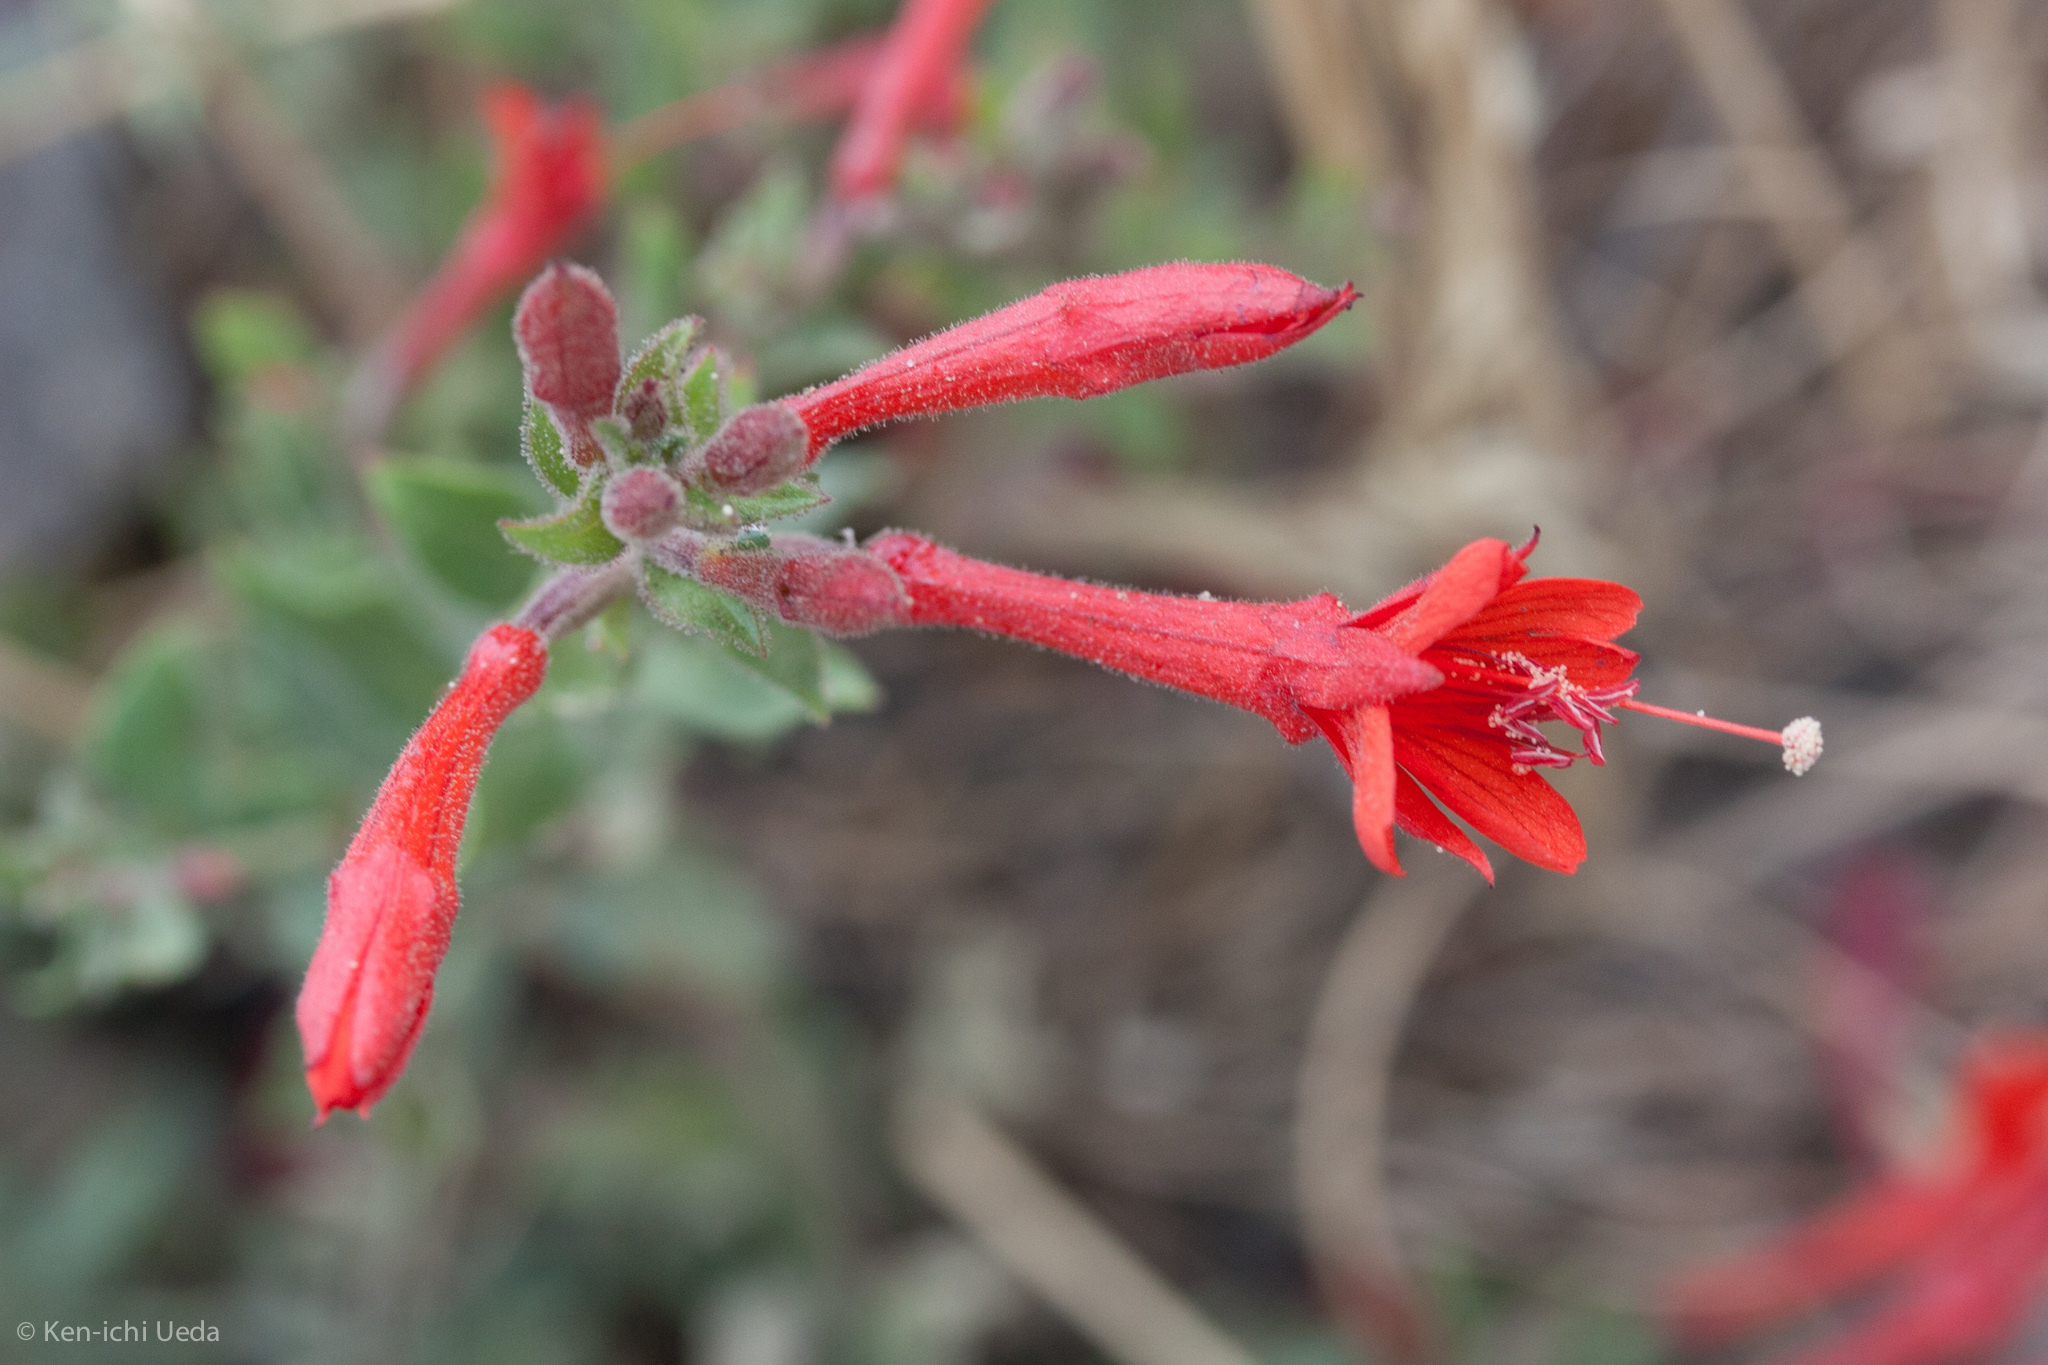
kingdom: Plantae
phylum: Tracheophyta
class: Magnoliopsida
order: Myrtales
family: Onagraceae
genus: Epilobium
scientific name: Epilobium canum
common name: California-fuchsia
